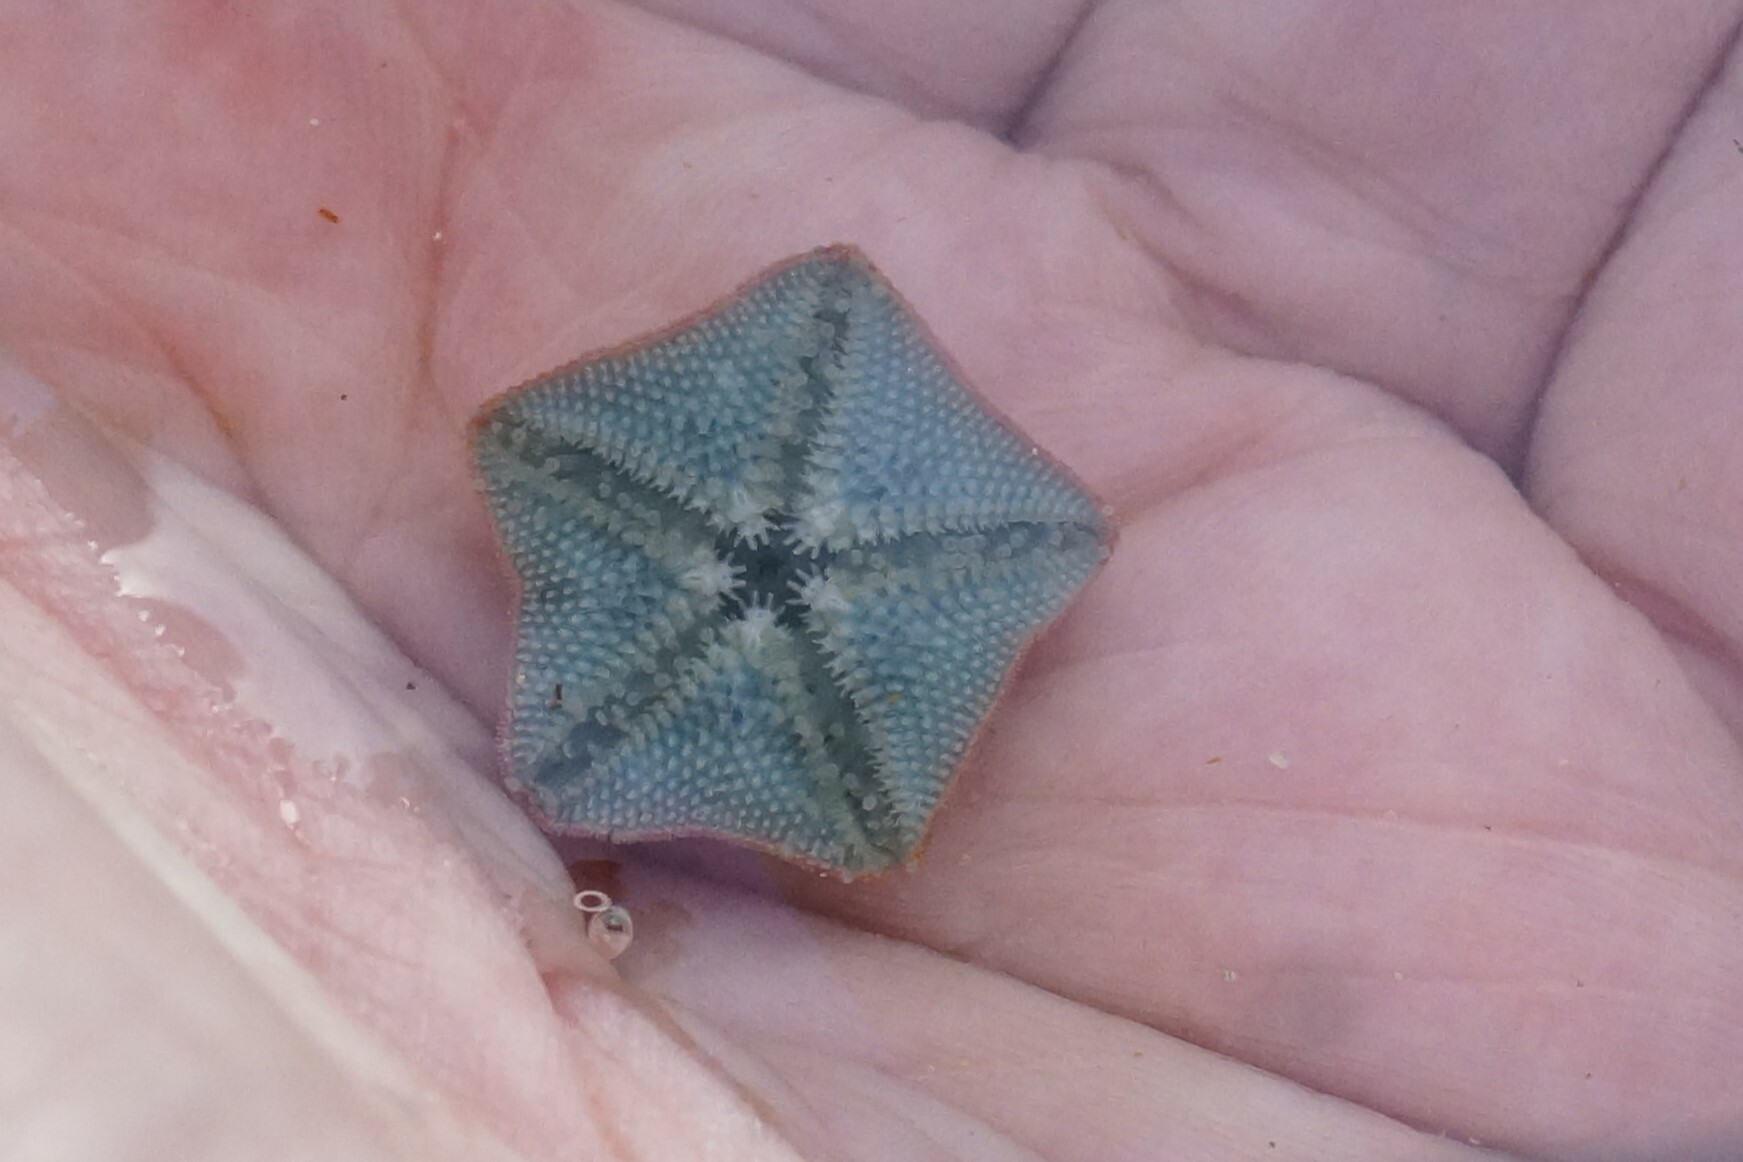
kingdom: Animalia
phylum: Echinodermata
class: Asteroidea
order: Valvatida
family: Asterinidae
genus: Parvulastra
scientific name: Parvulastra exigua
